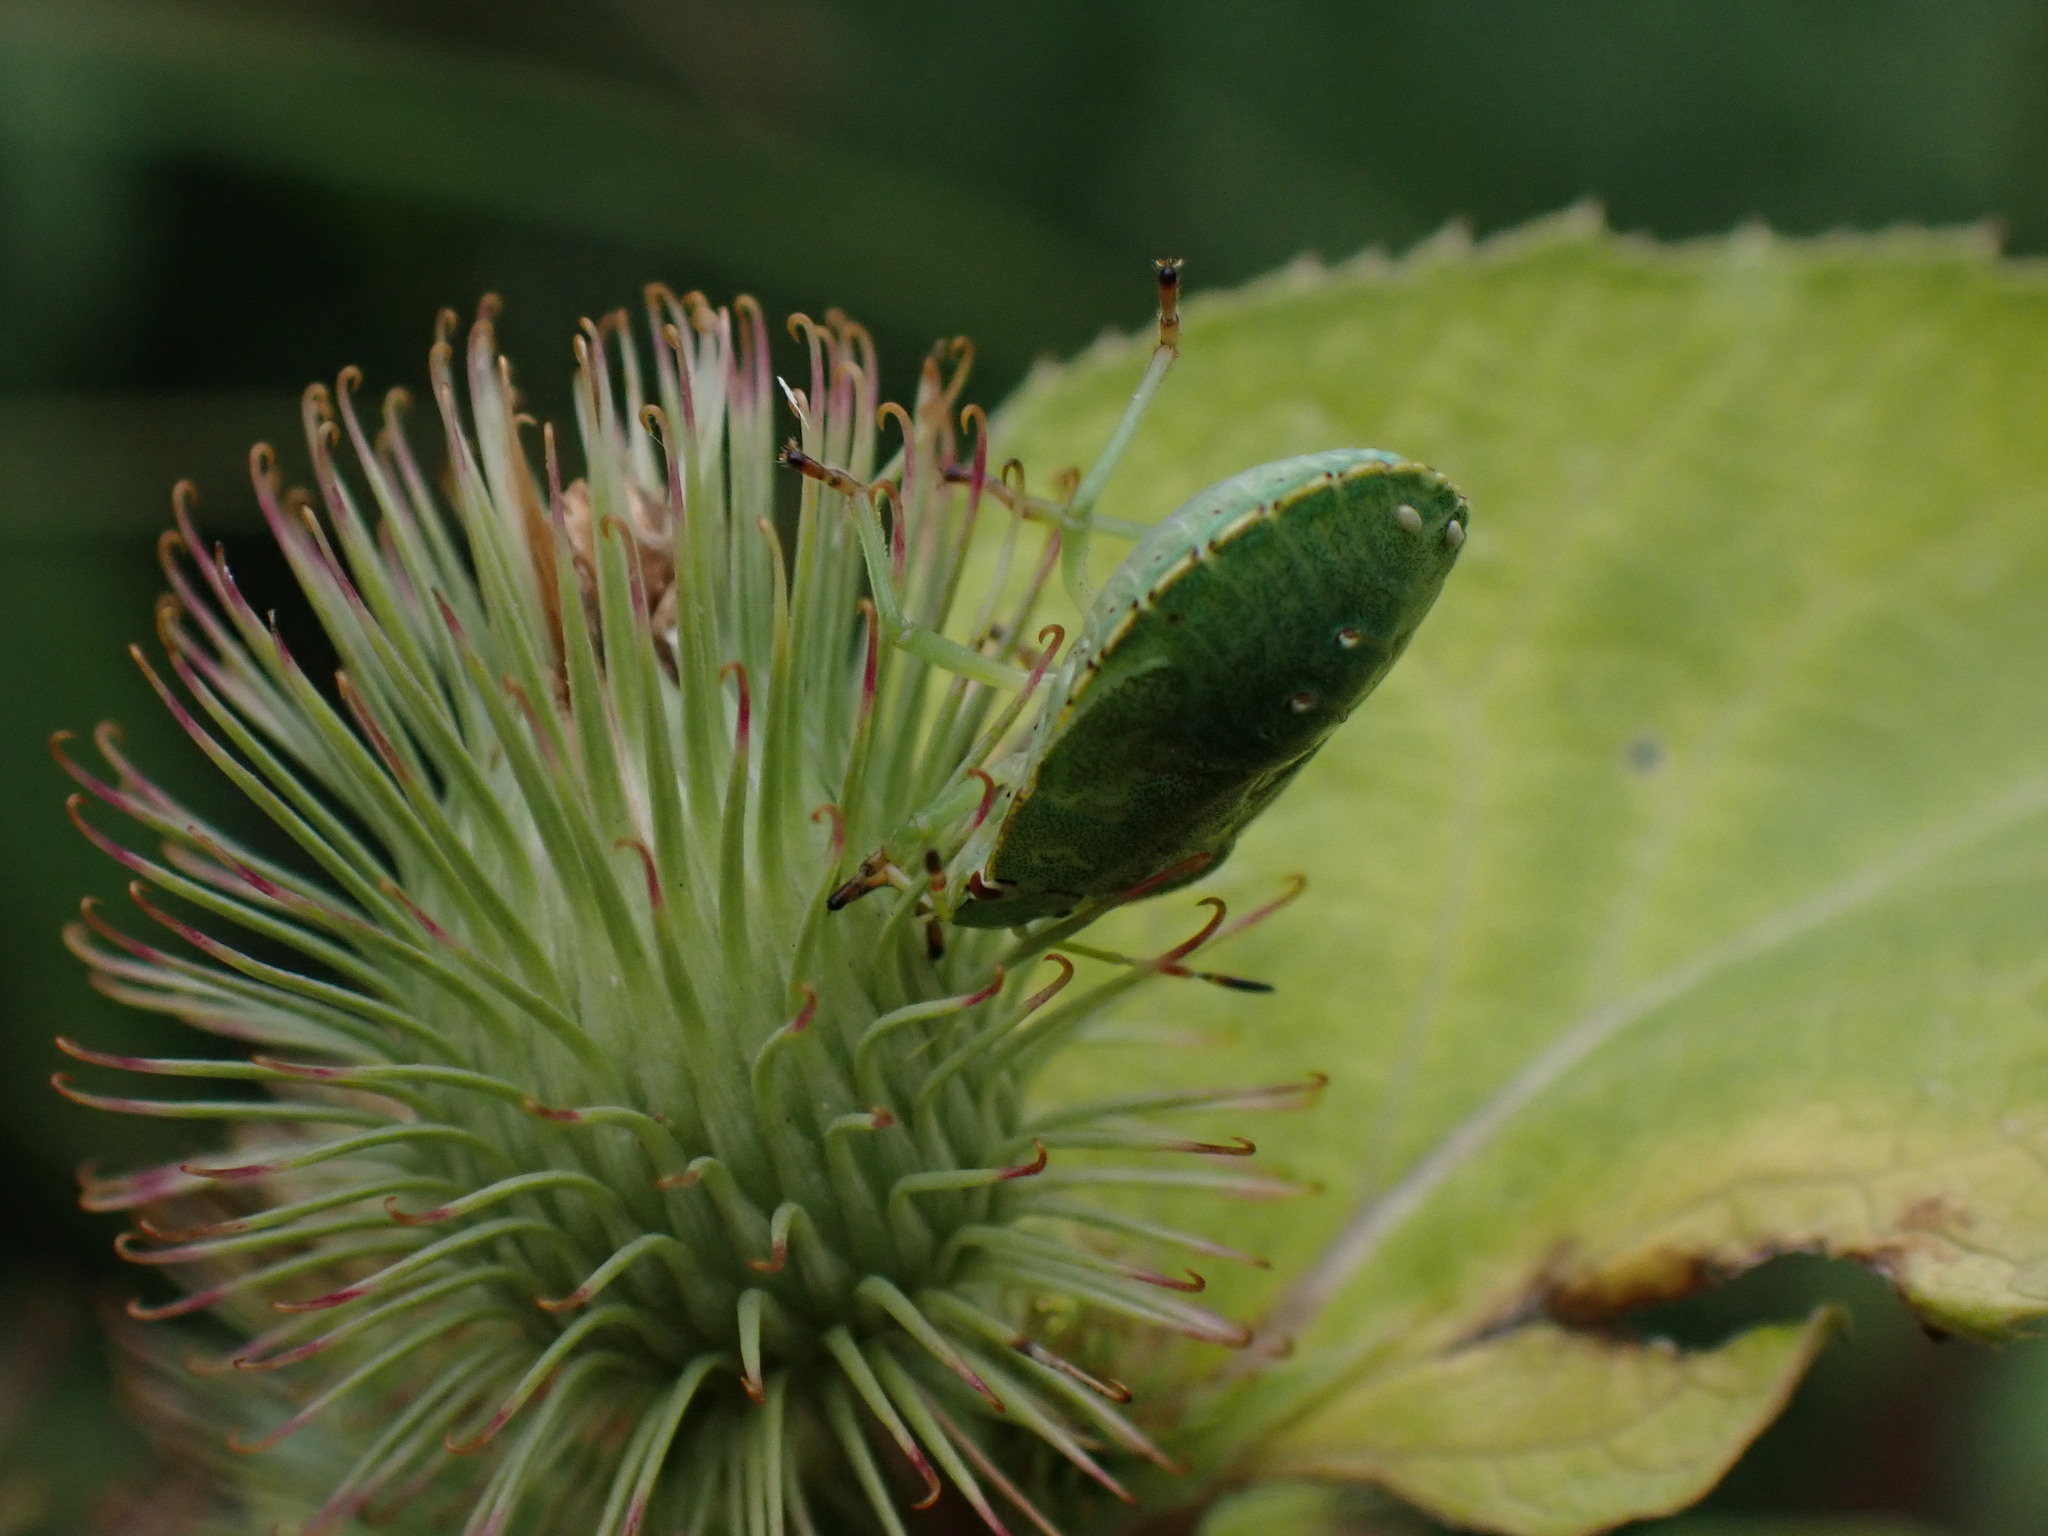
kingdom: Animalia
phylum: Arthropoda
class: Insecta
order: Hemiptera
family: Pentatomidae
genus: Palomena
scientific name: Palomena prasina
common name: Green shieldbug
